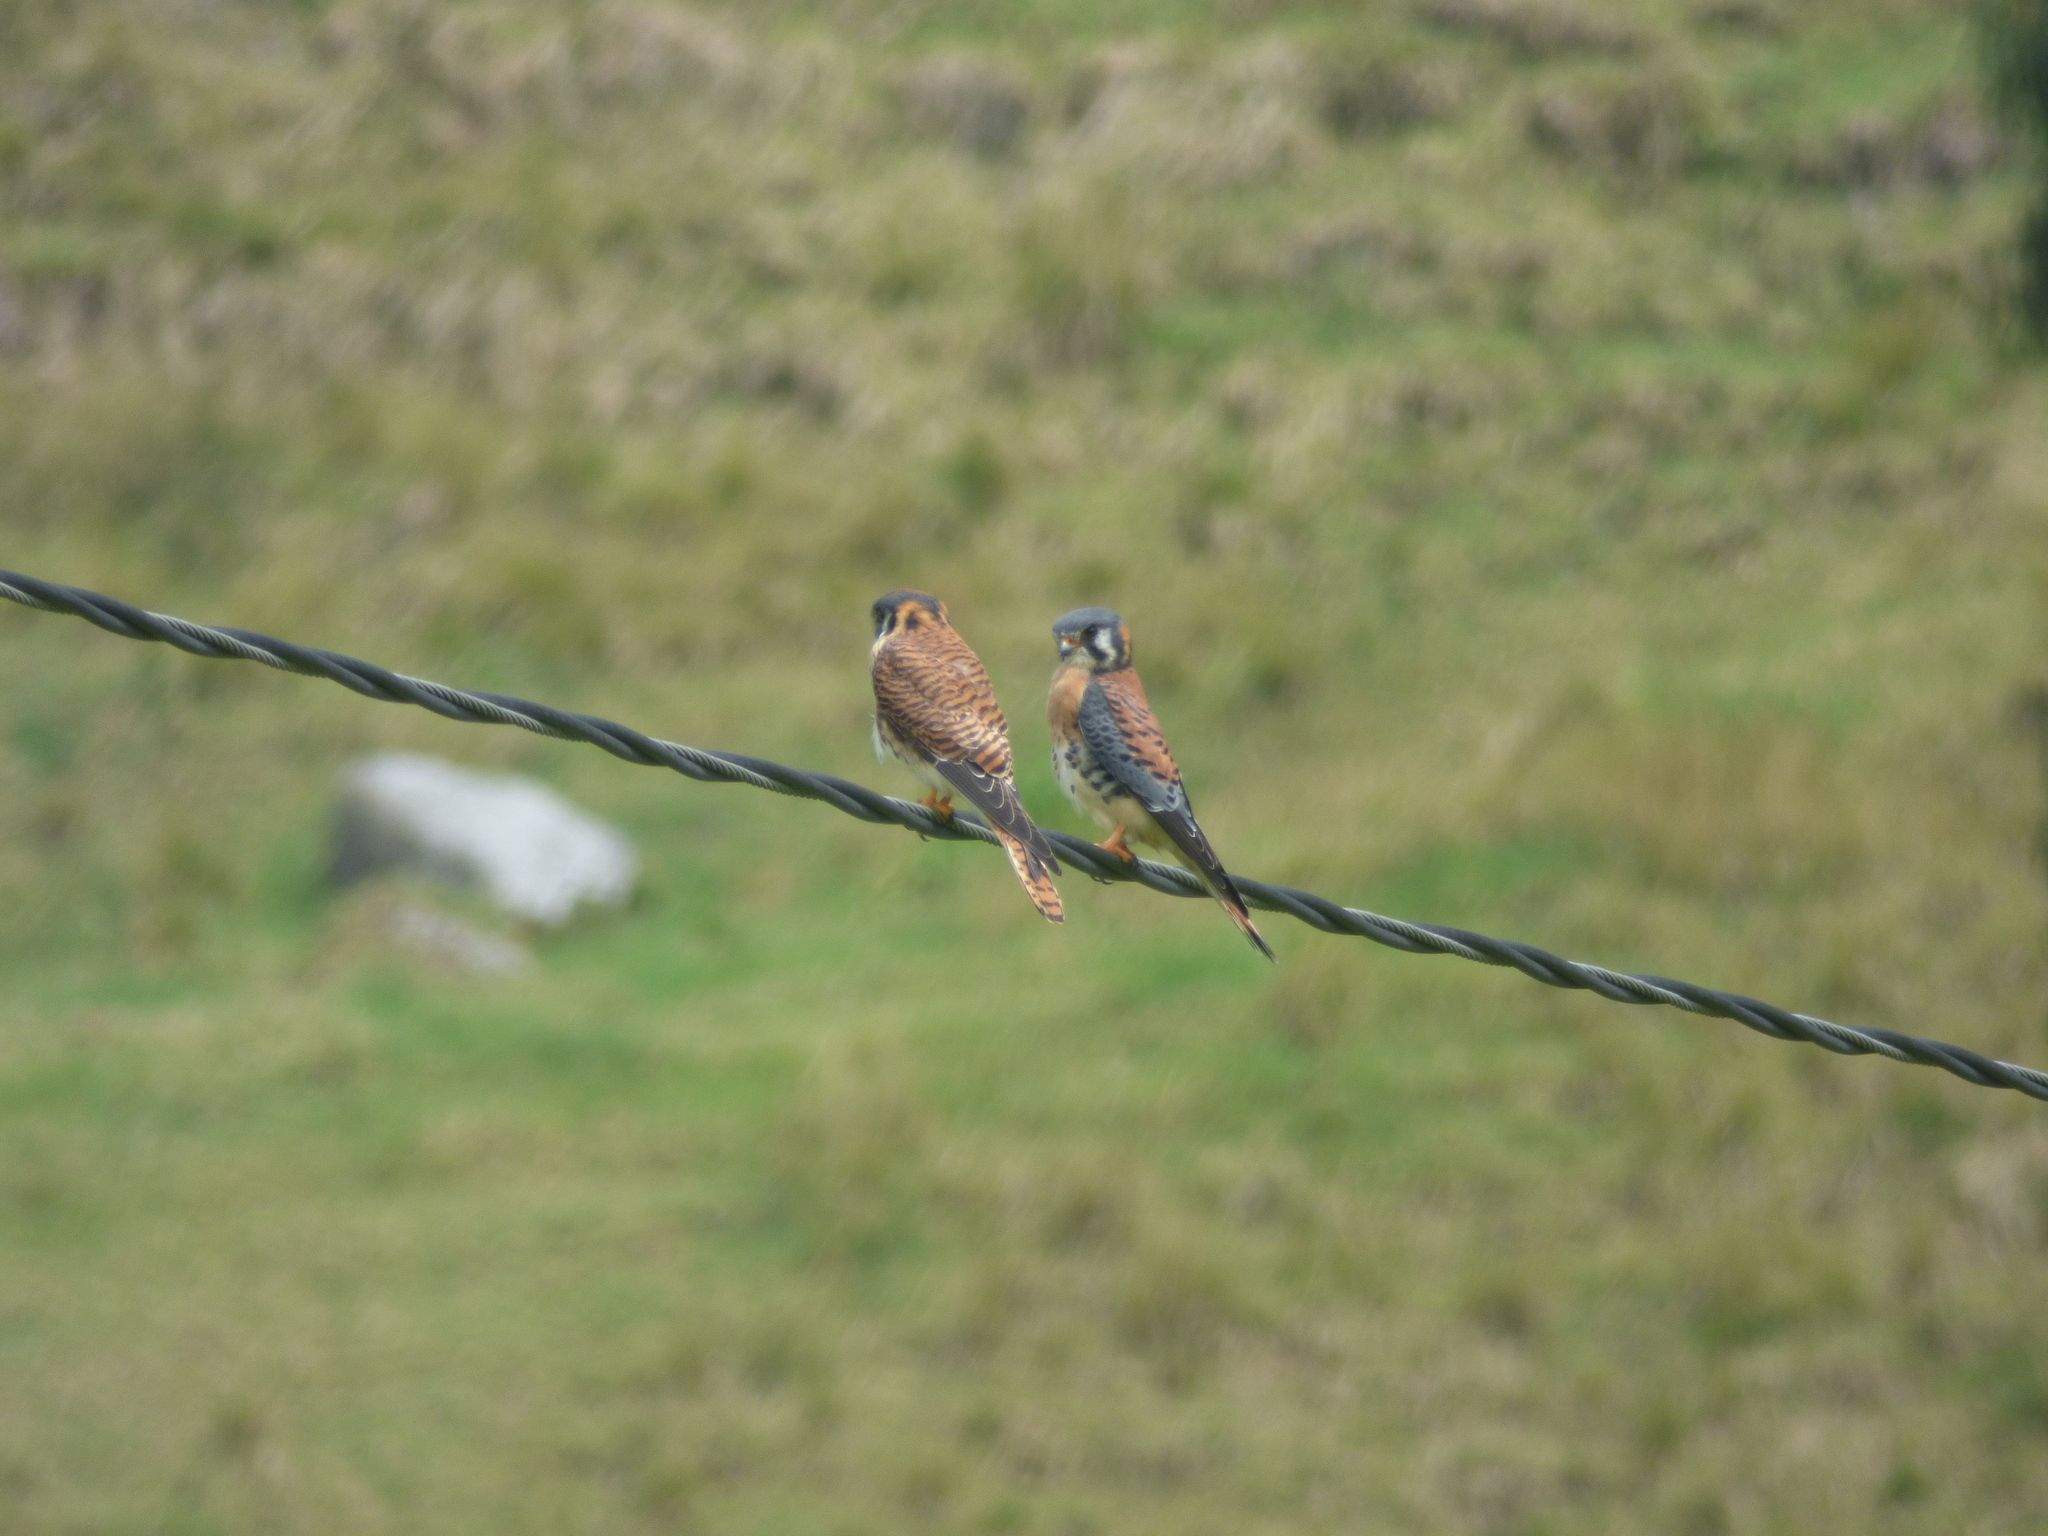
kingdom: Animalia
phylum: Chordata
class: Aves
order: Falconiformes
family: Falconidae
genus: Falco
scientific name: Falco sparverius
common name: American kestrel
